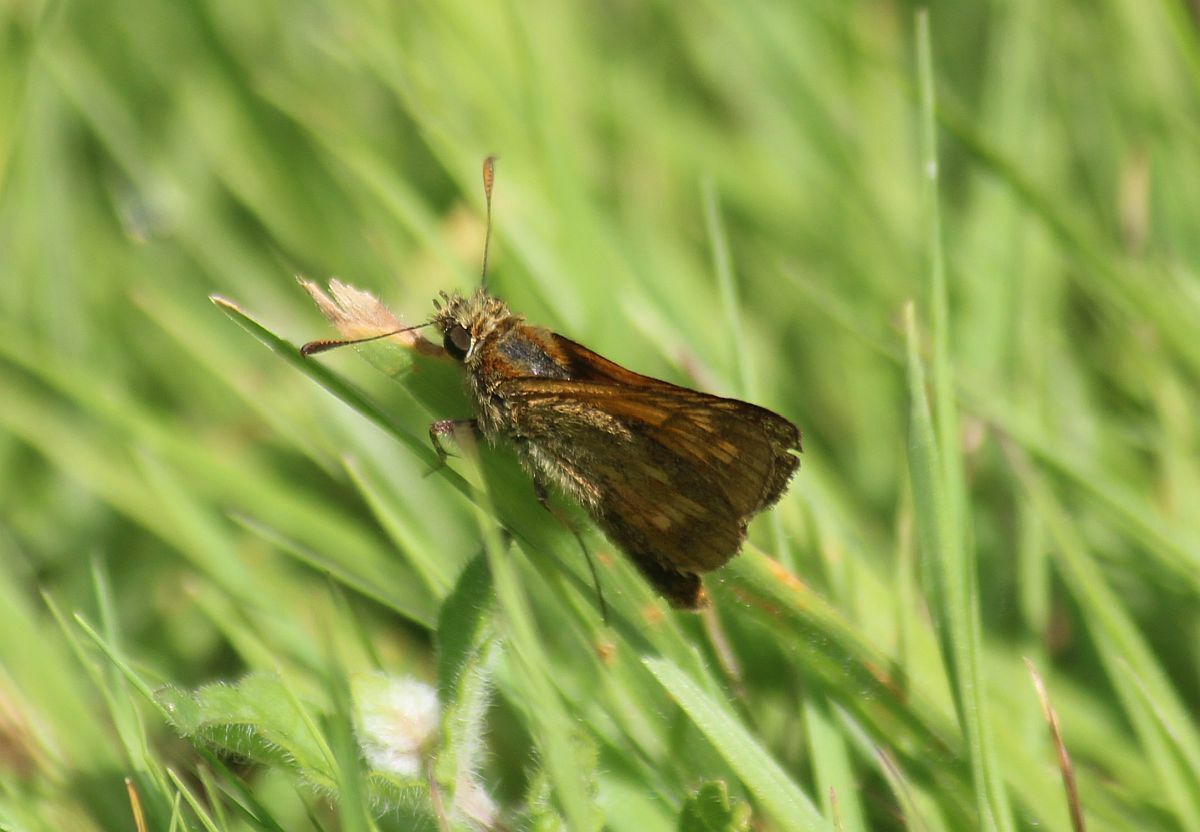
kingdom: Animalia
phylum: Arthropoda
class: Insecta
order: Lepidoptera
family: Hesperiidae
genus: Ochlodes
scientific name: Ochlodes venata
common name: Large skipper
